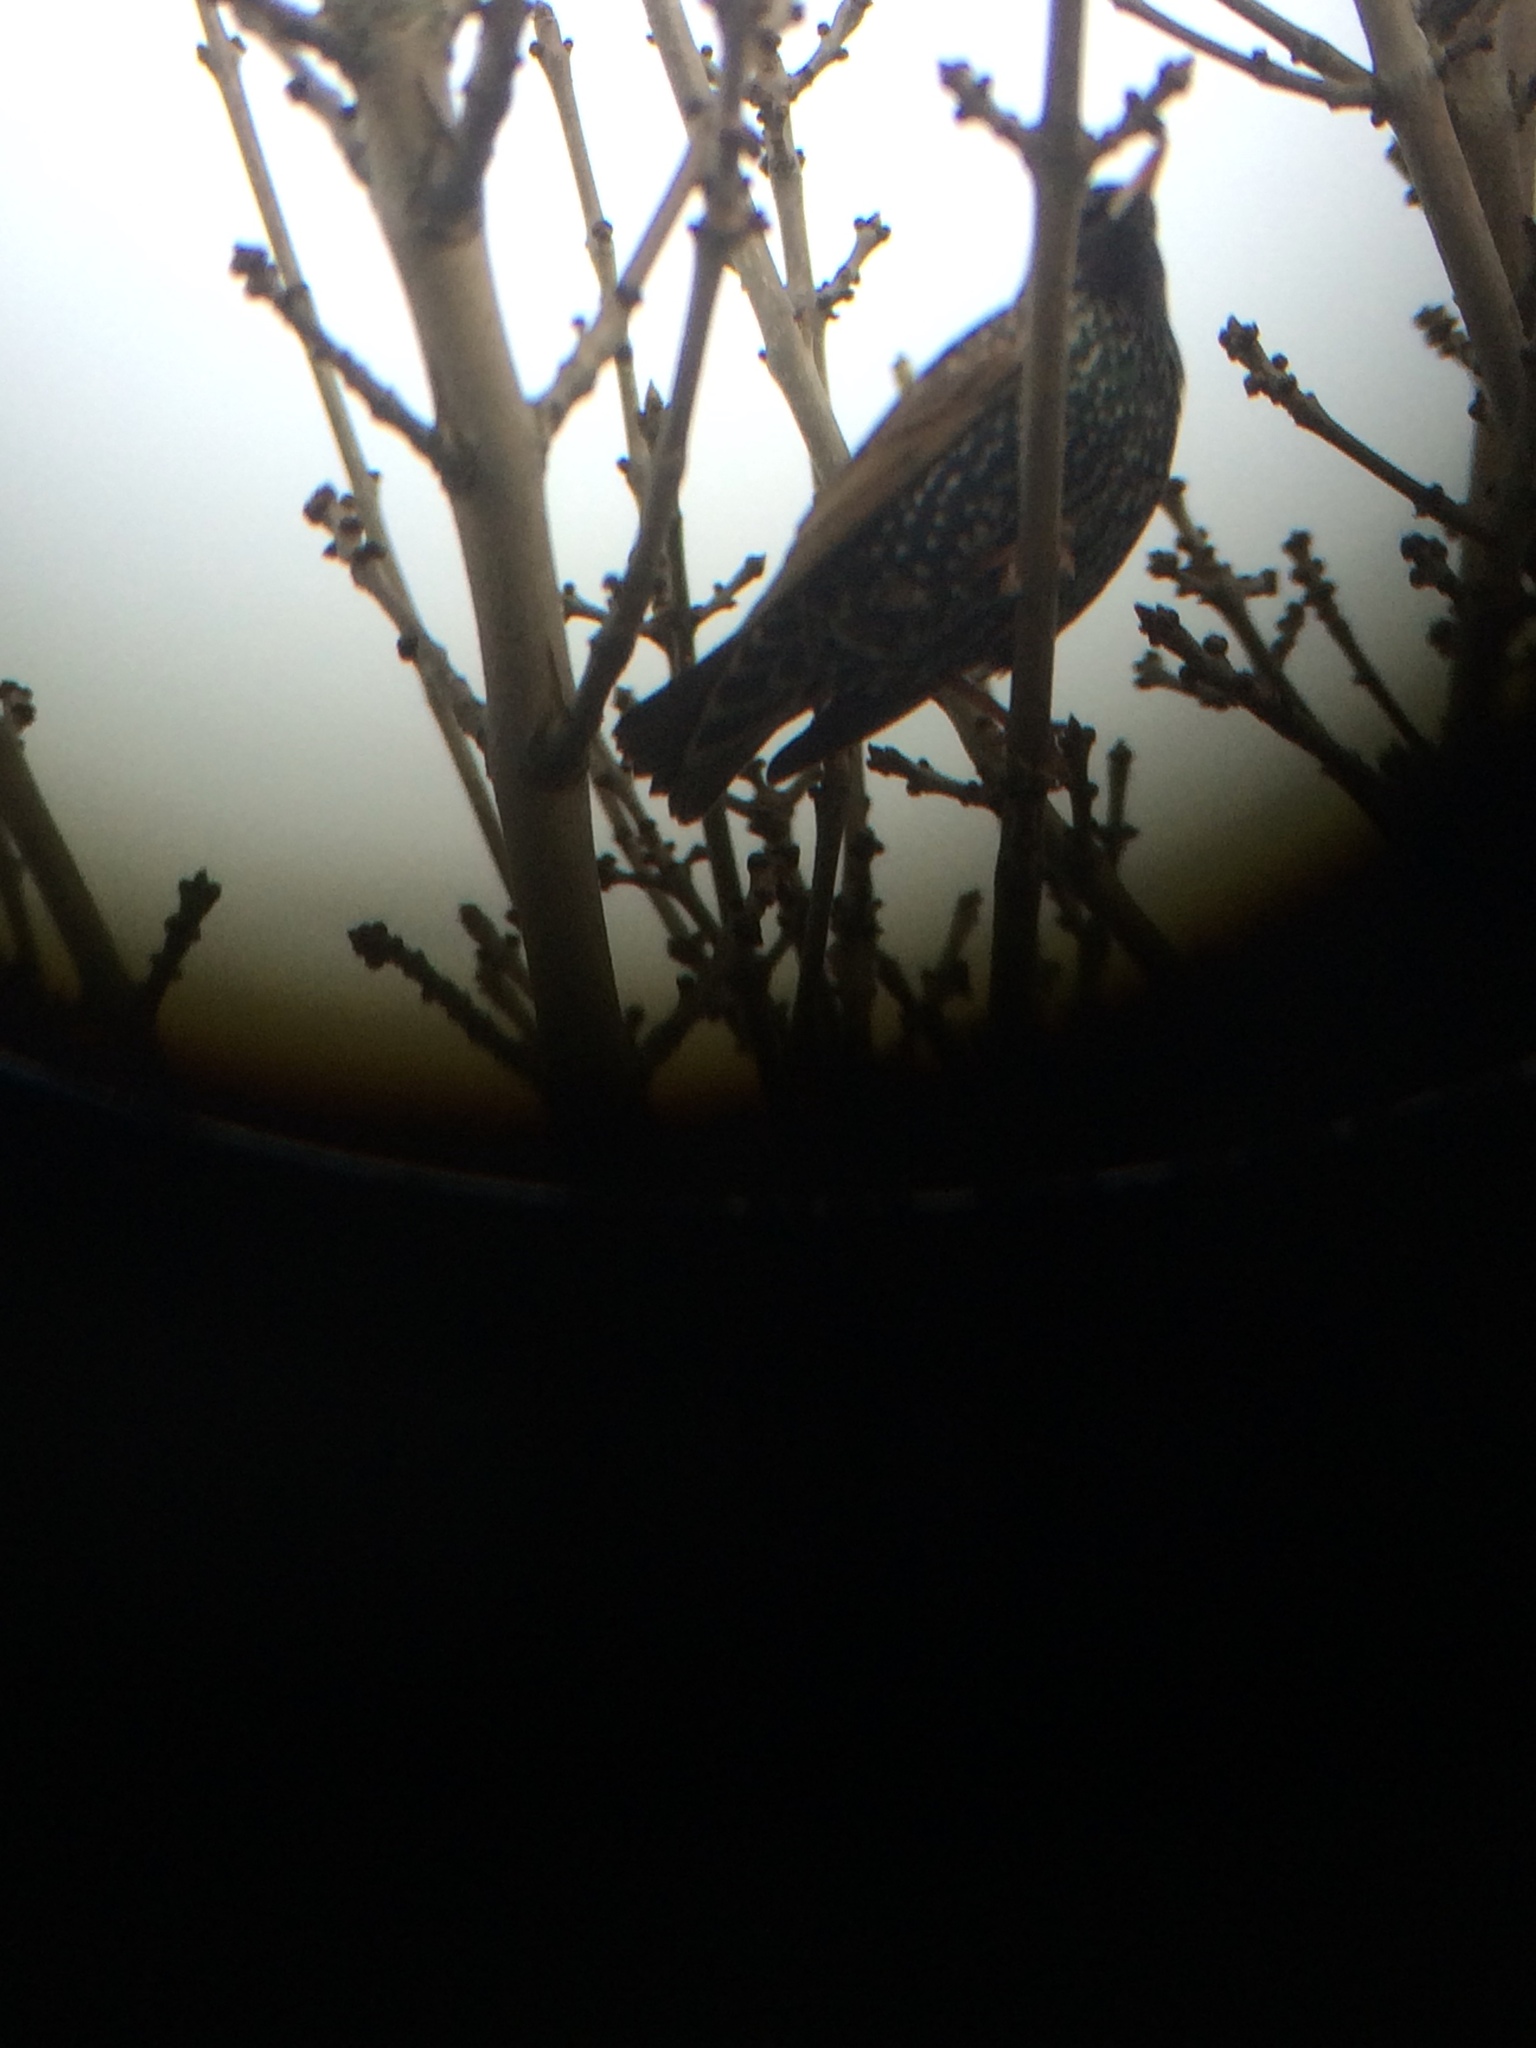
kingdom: Animalia
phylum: Chordata
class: Aves
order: Passeriformes
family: Sturnidae
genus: Sturnus
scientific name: Sturnus vulgaris
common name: Common starling
